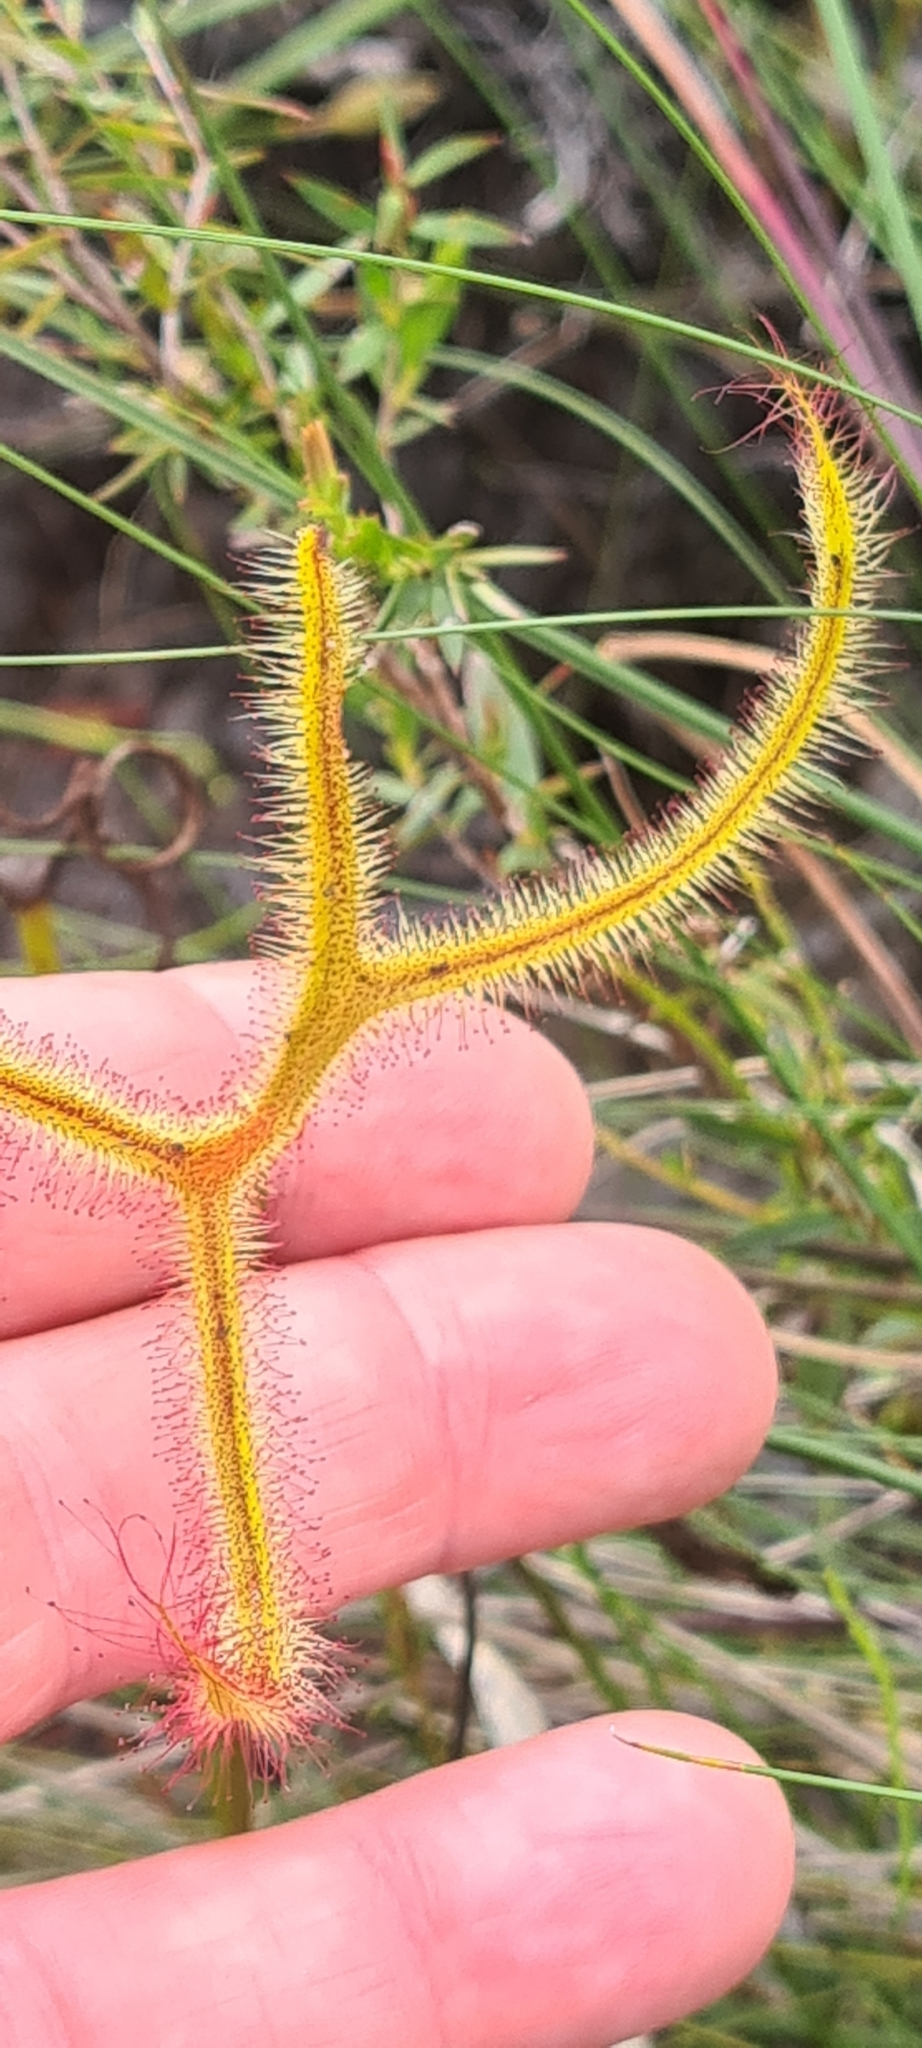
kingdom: Plantae
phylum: Tracheophyta
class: Magnoliopsida
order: Caryophyllales
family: Droseraceae
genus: Drosera
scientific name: Drosera binata
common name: Forked sundew
